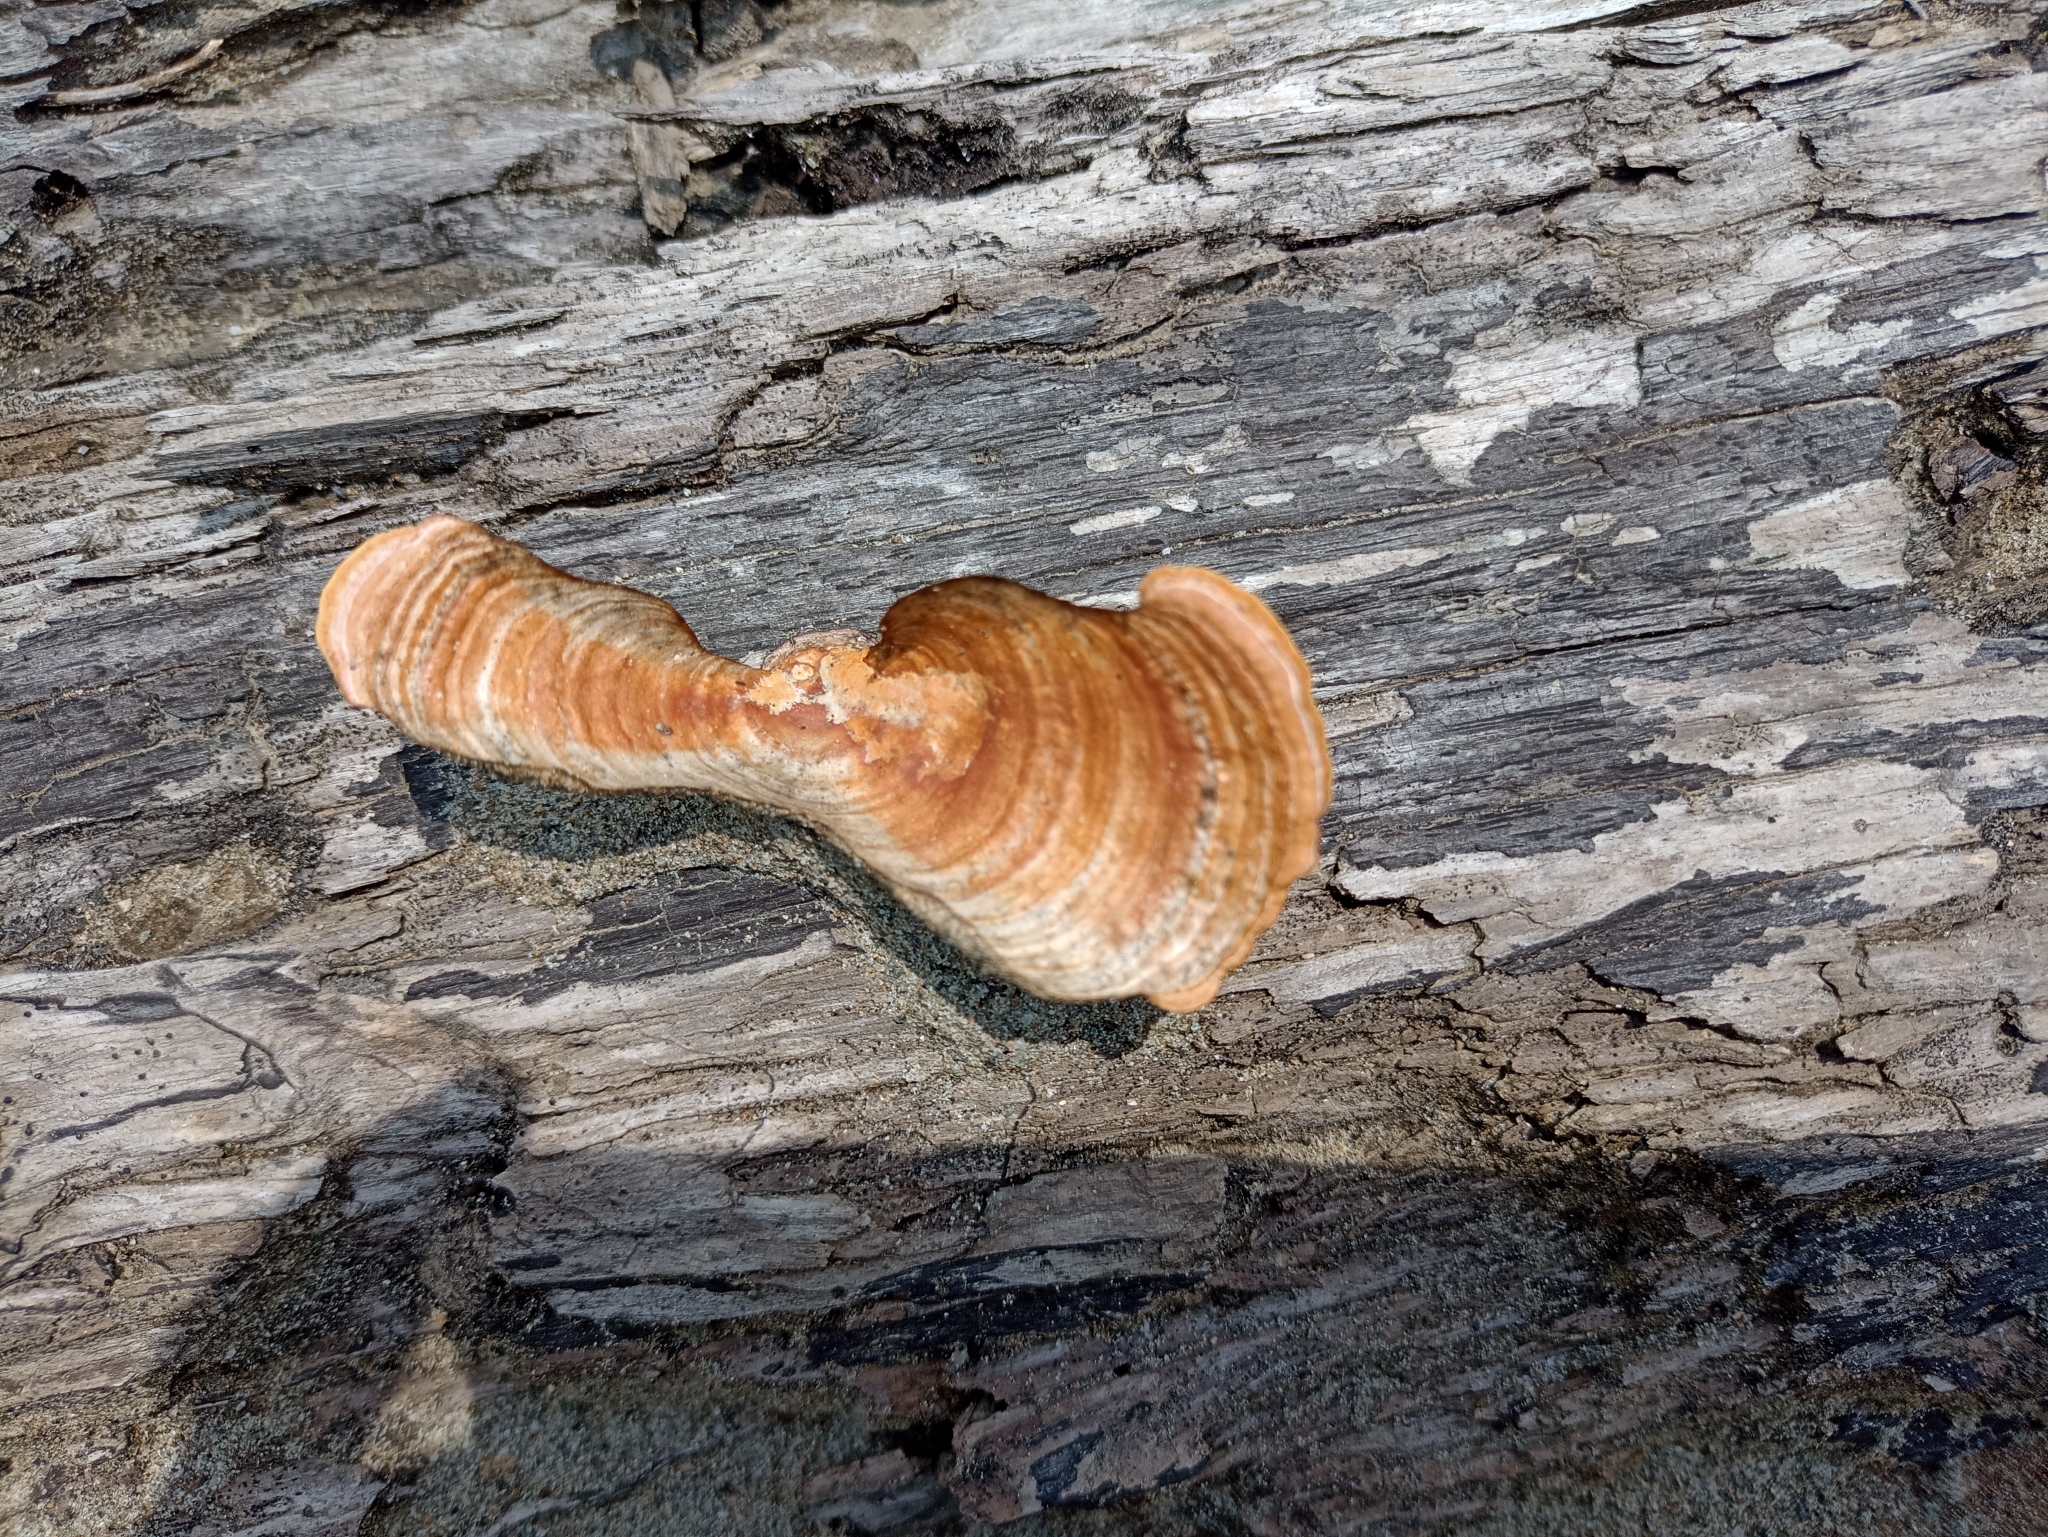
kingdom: Fungi
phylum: Basidiomycota
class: Agaricomycetes
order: Polyporales
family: Polyporaceae
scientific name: Polyporaceae
